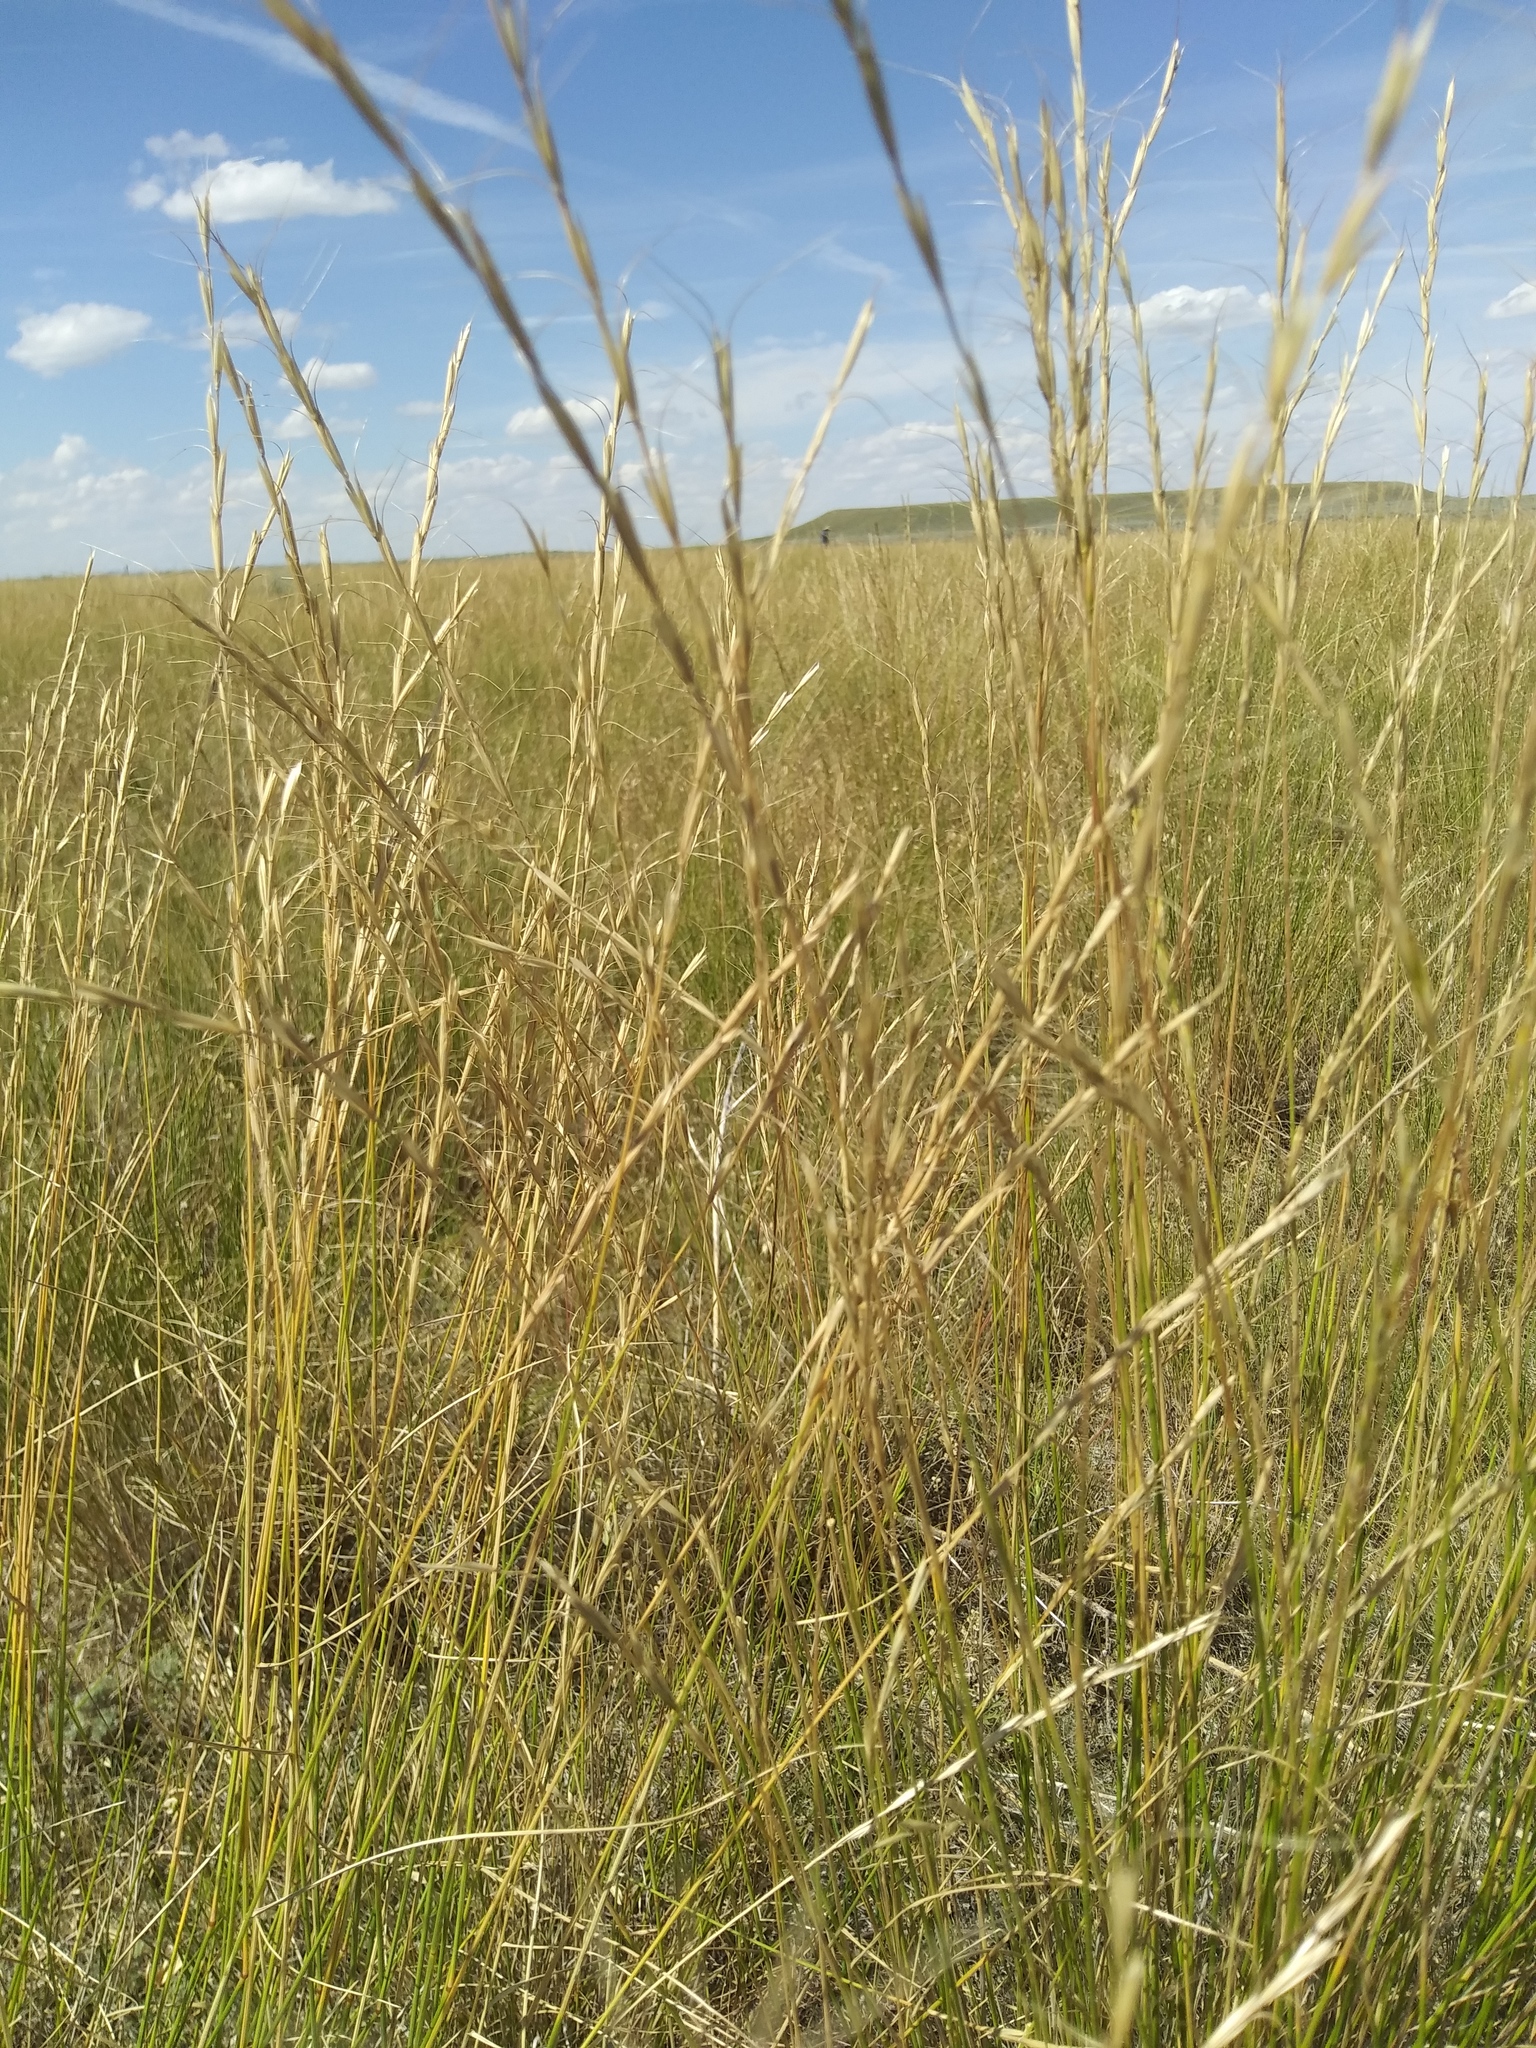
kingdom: Plantae
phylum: Tracheophyta
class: Liliopsida
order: Poales
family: Poaceae
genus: Pseudoroegneria
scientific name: Pseudoroegneria spicata
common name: Bluebunch wheatgrass
